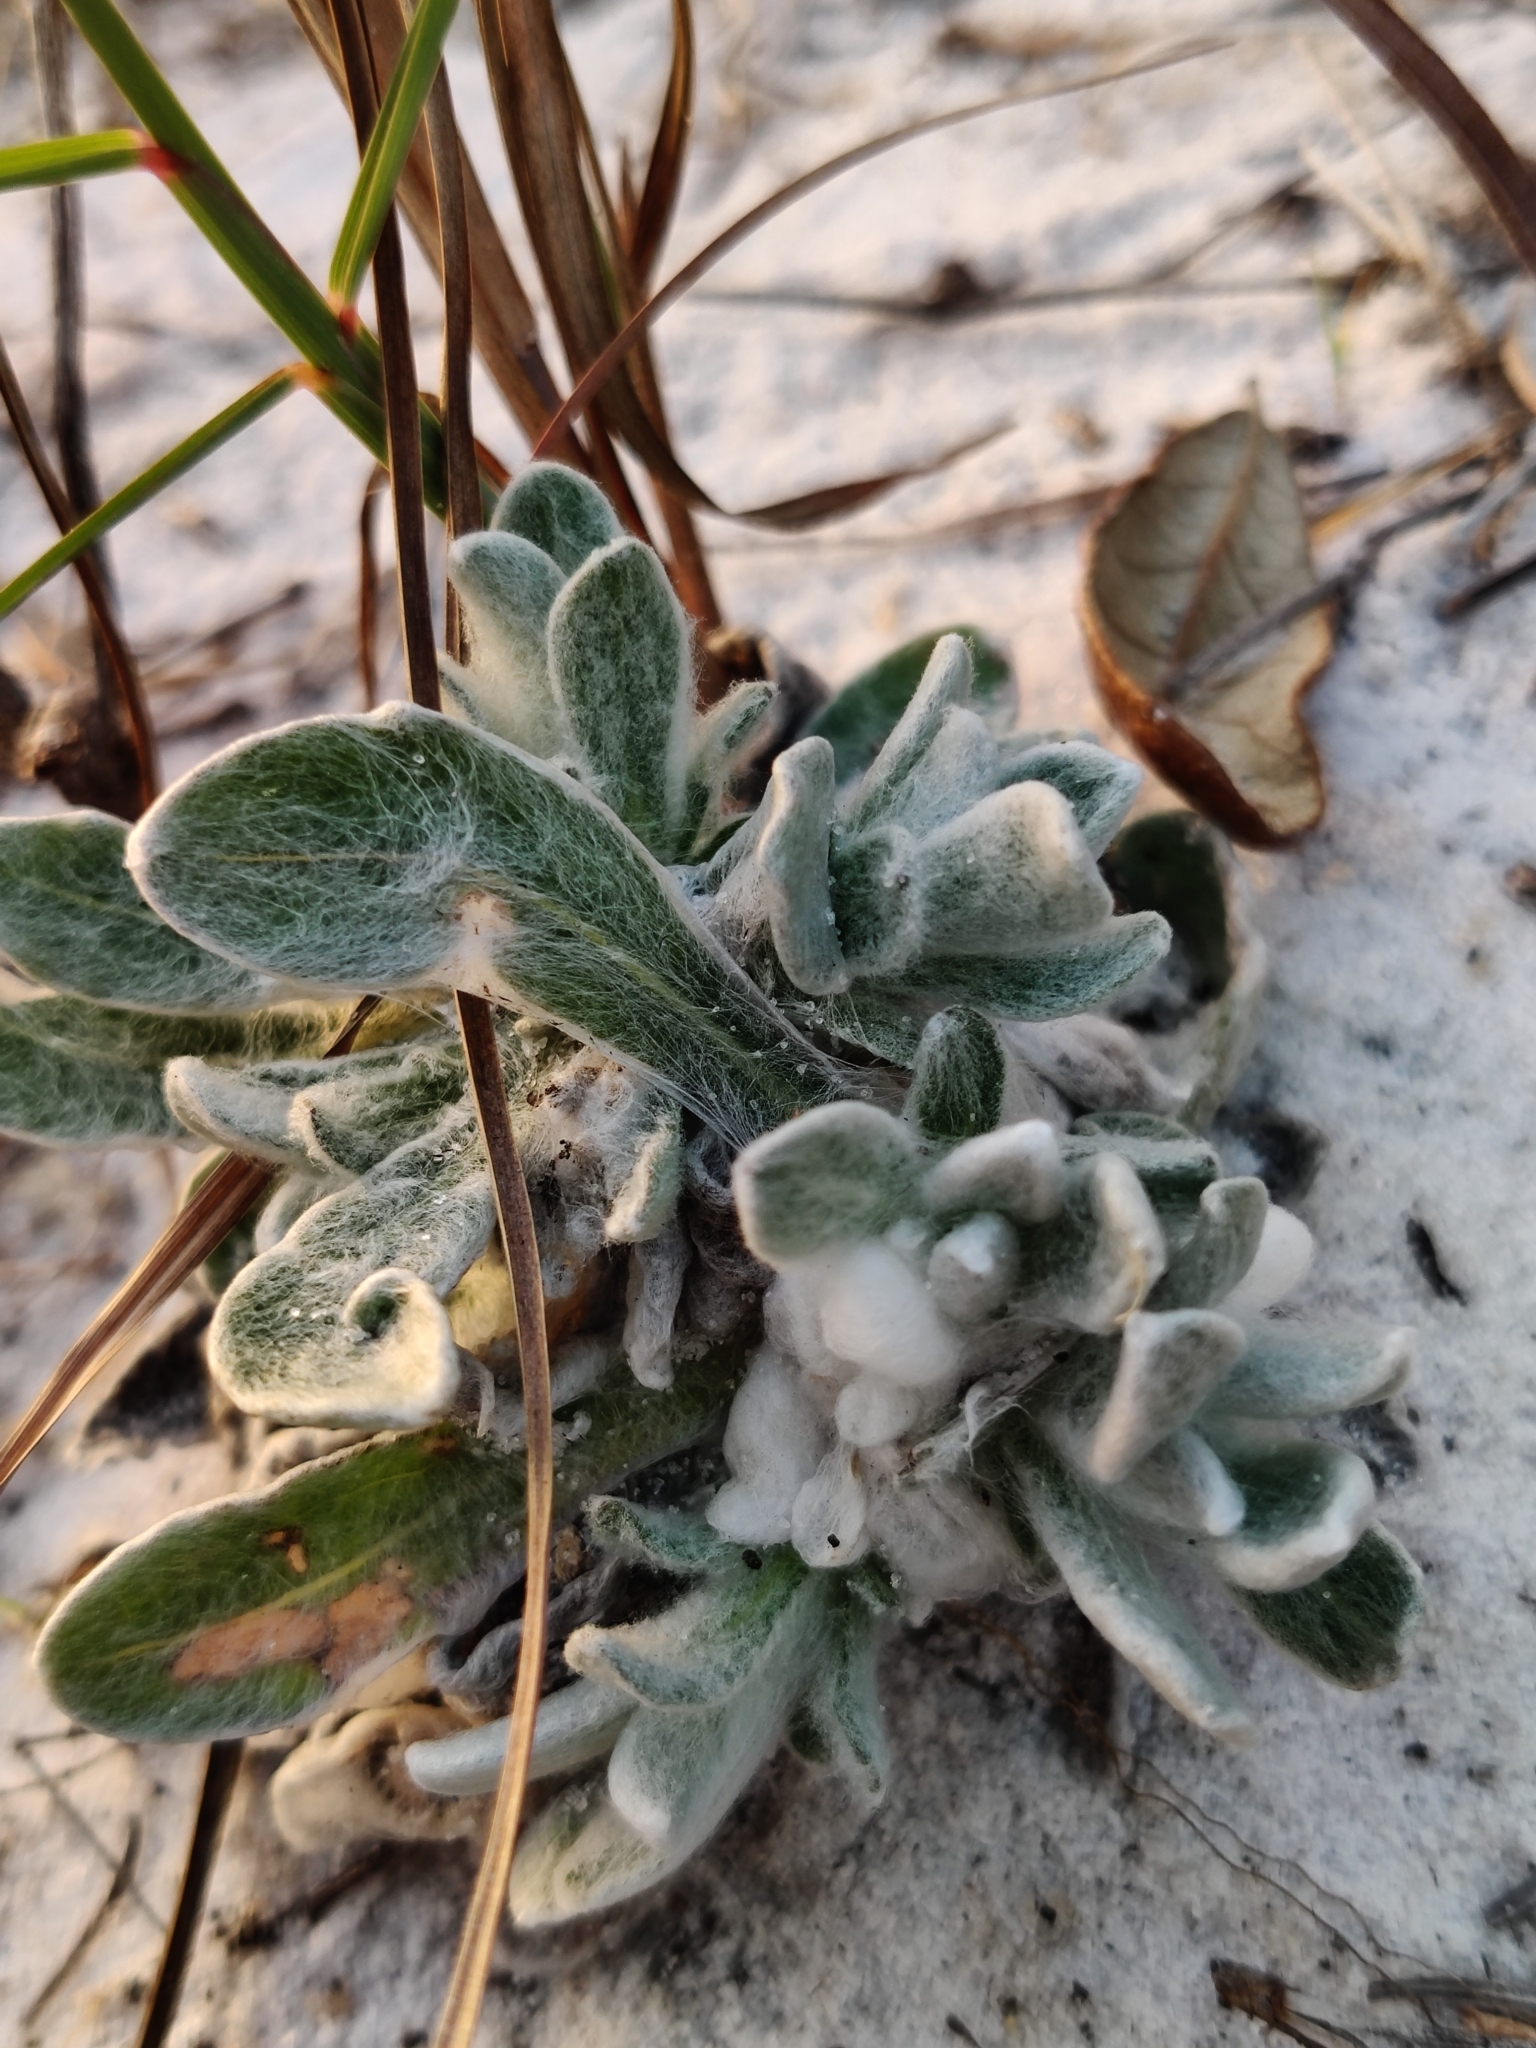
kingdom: Plantae
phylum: Tracheophyta
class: Magnoliopsida
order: Asterales
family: Asteraceae
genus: Chrysopsis
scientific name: Chrysopsis godfreyi
